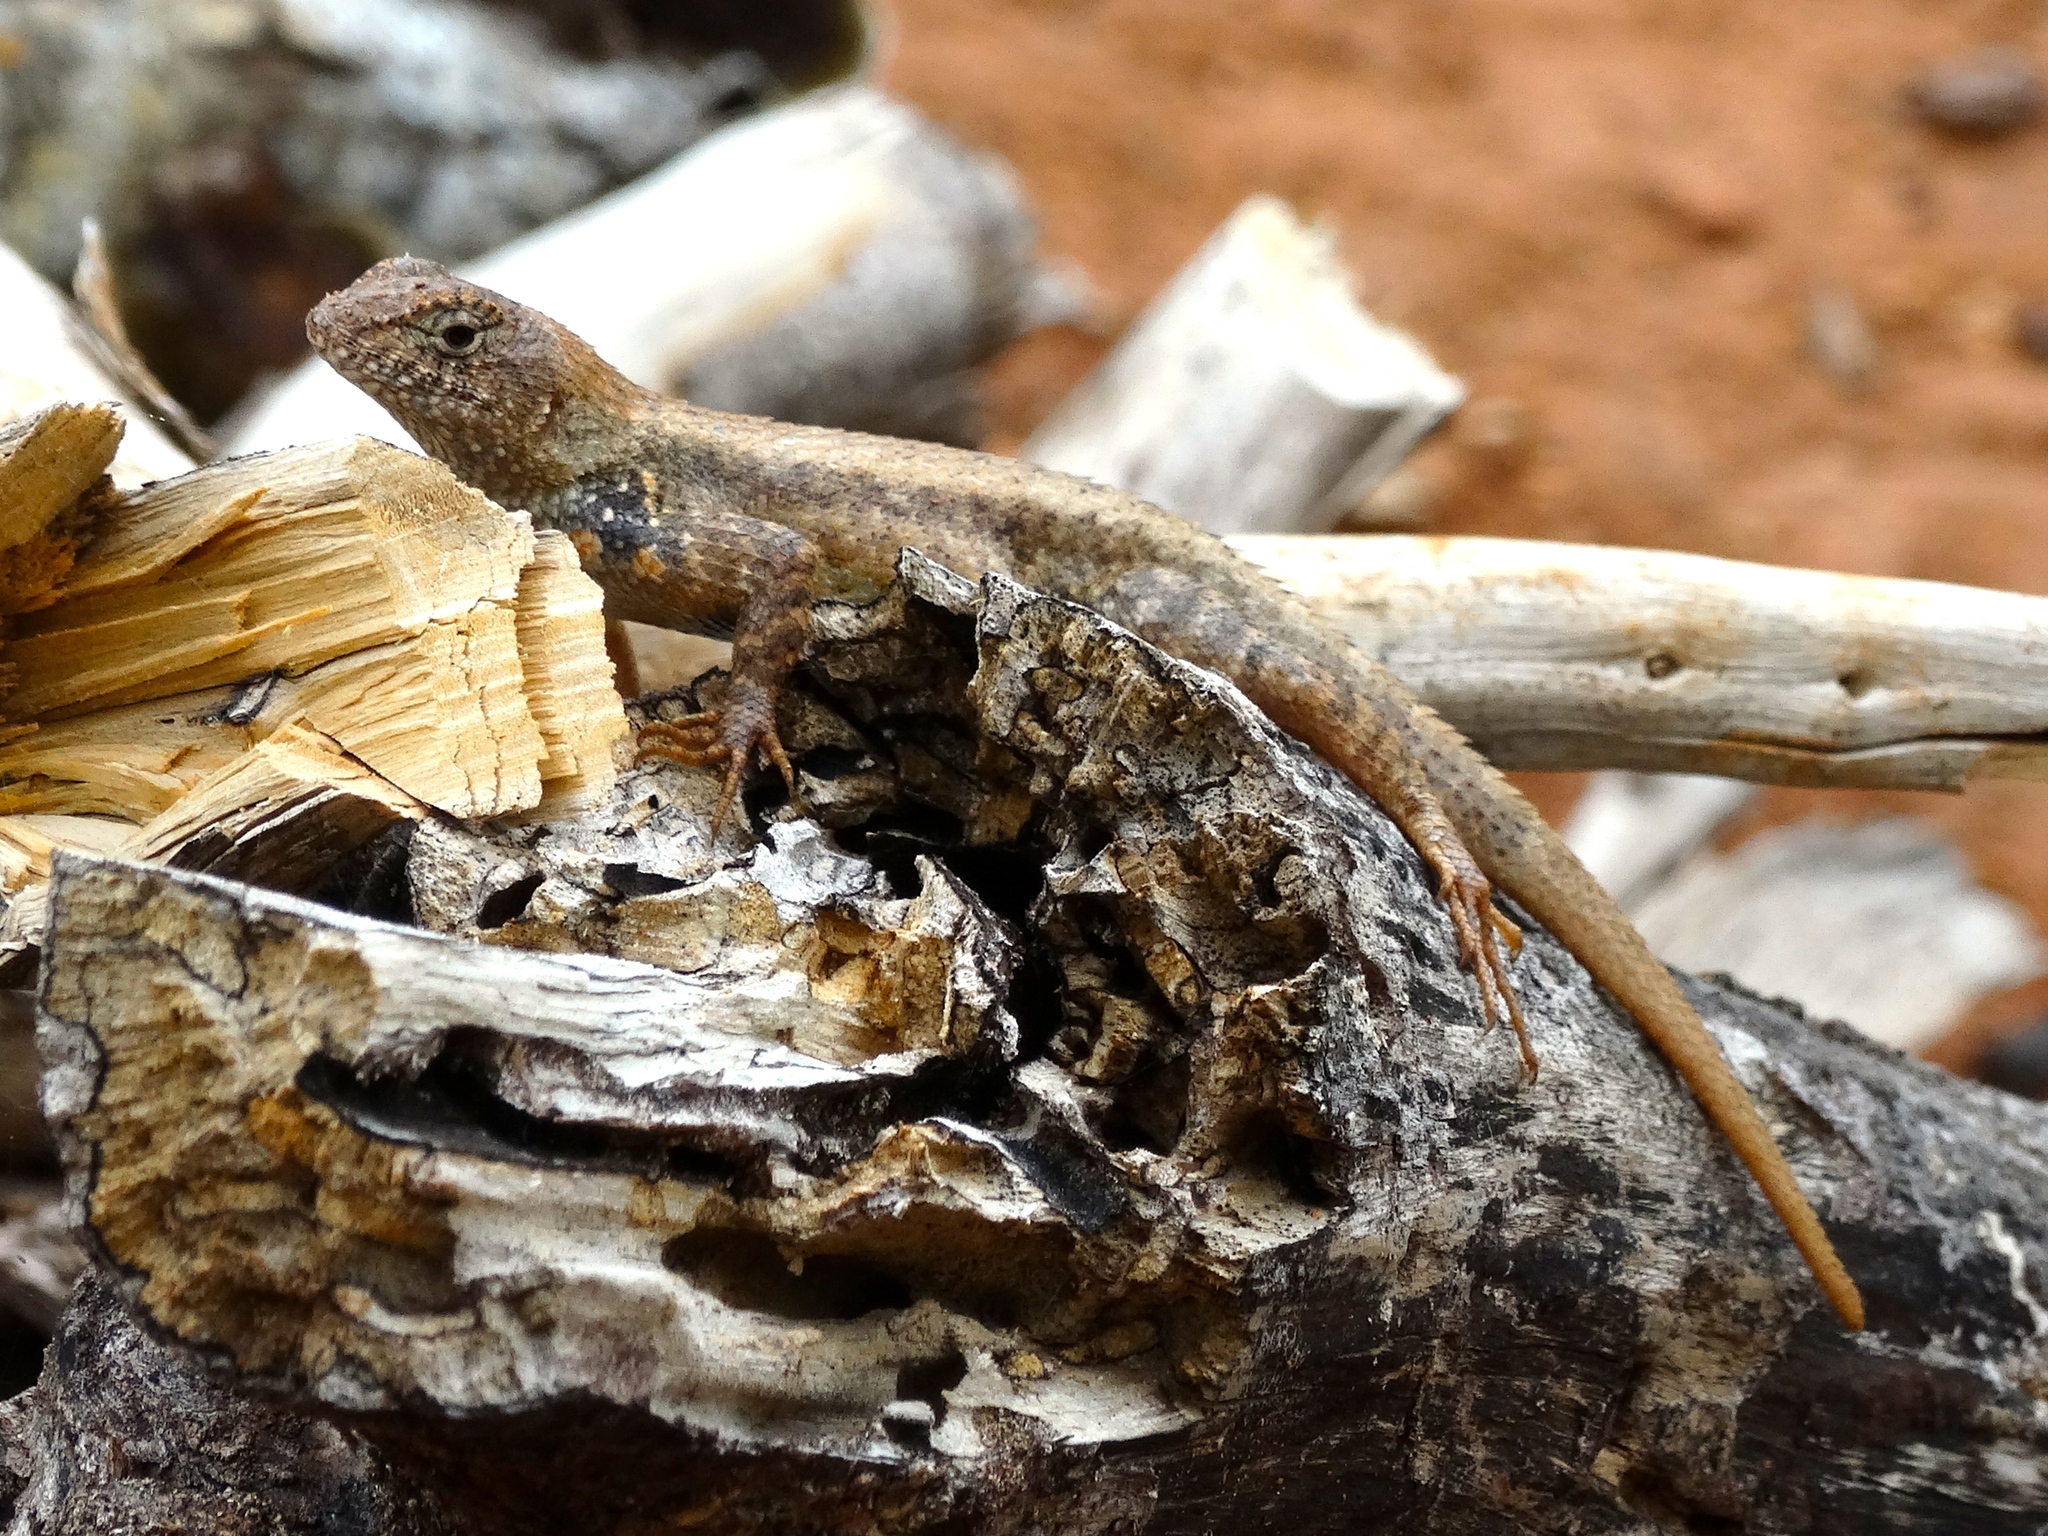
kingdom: Animalia
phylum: Chordata
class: Squamata
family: Phrynosomatidae
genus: Sceloporus
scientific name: Sceloporus nelsoni
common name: Nelson's spiny lizard
